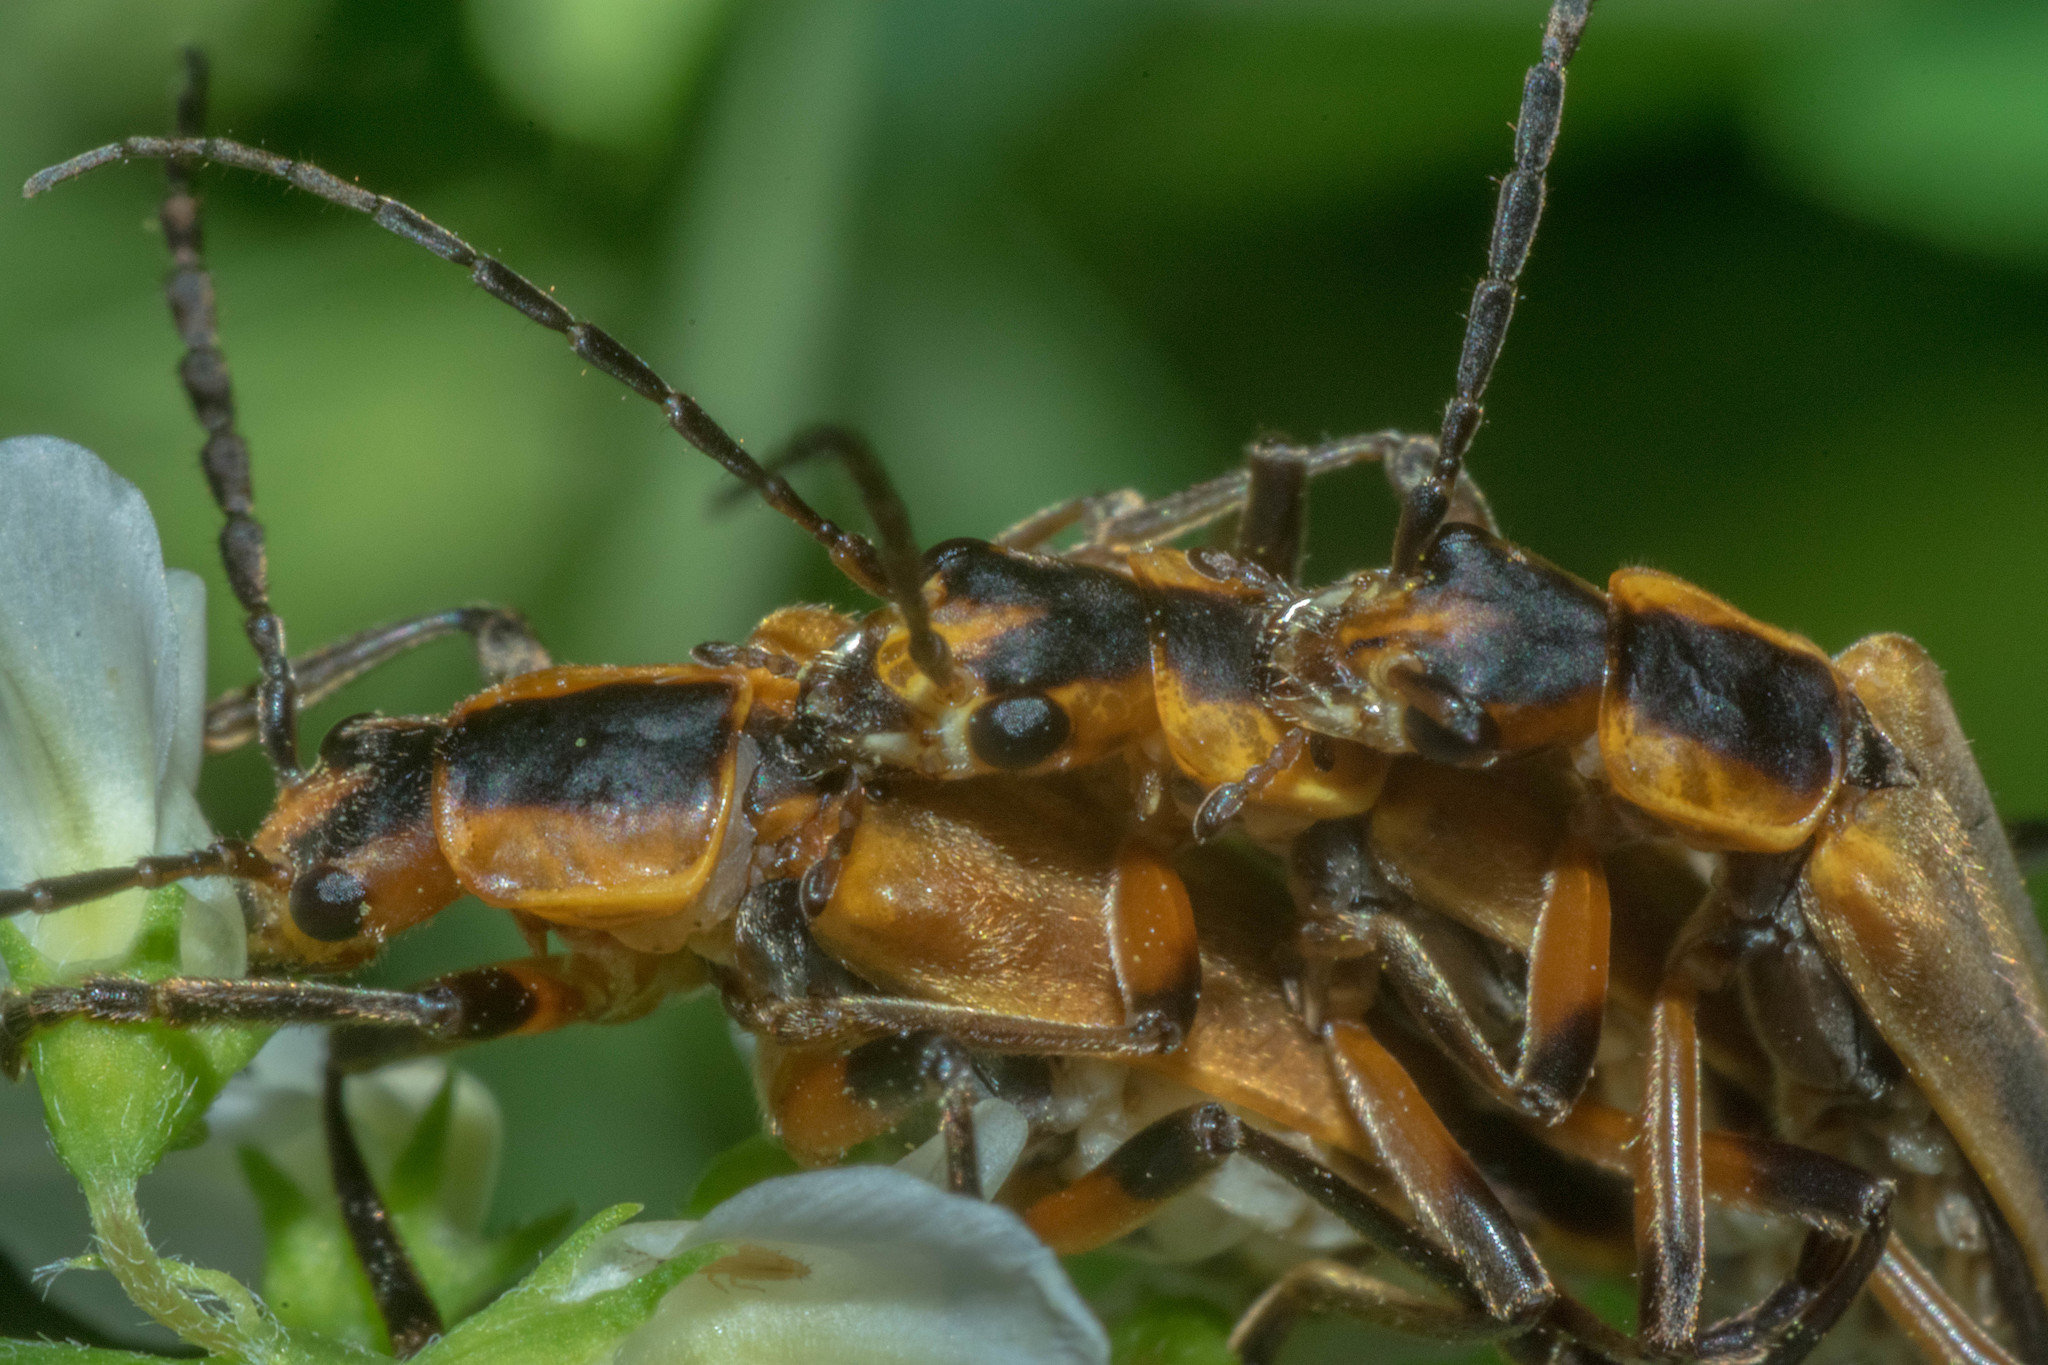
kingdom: Animalia
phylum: Arthropoda
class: Insecta
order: Coleoptera
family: Cantharidae
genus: Chauliognathus
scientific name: Chauliognathus marginatus
